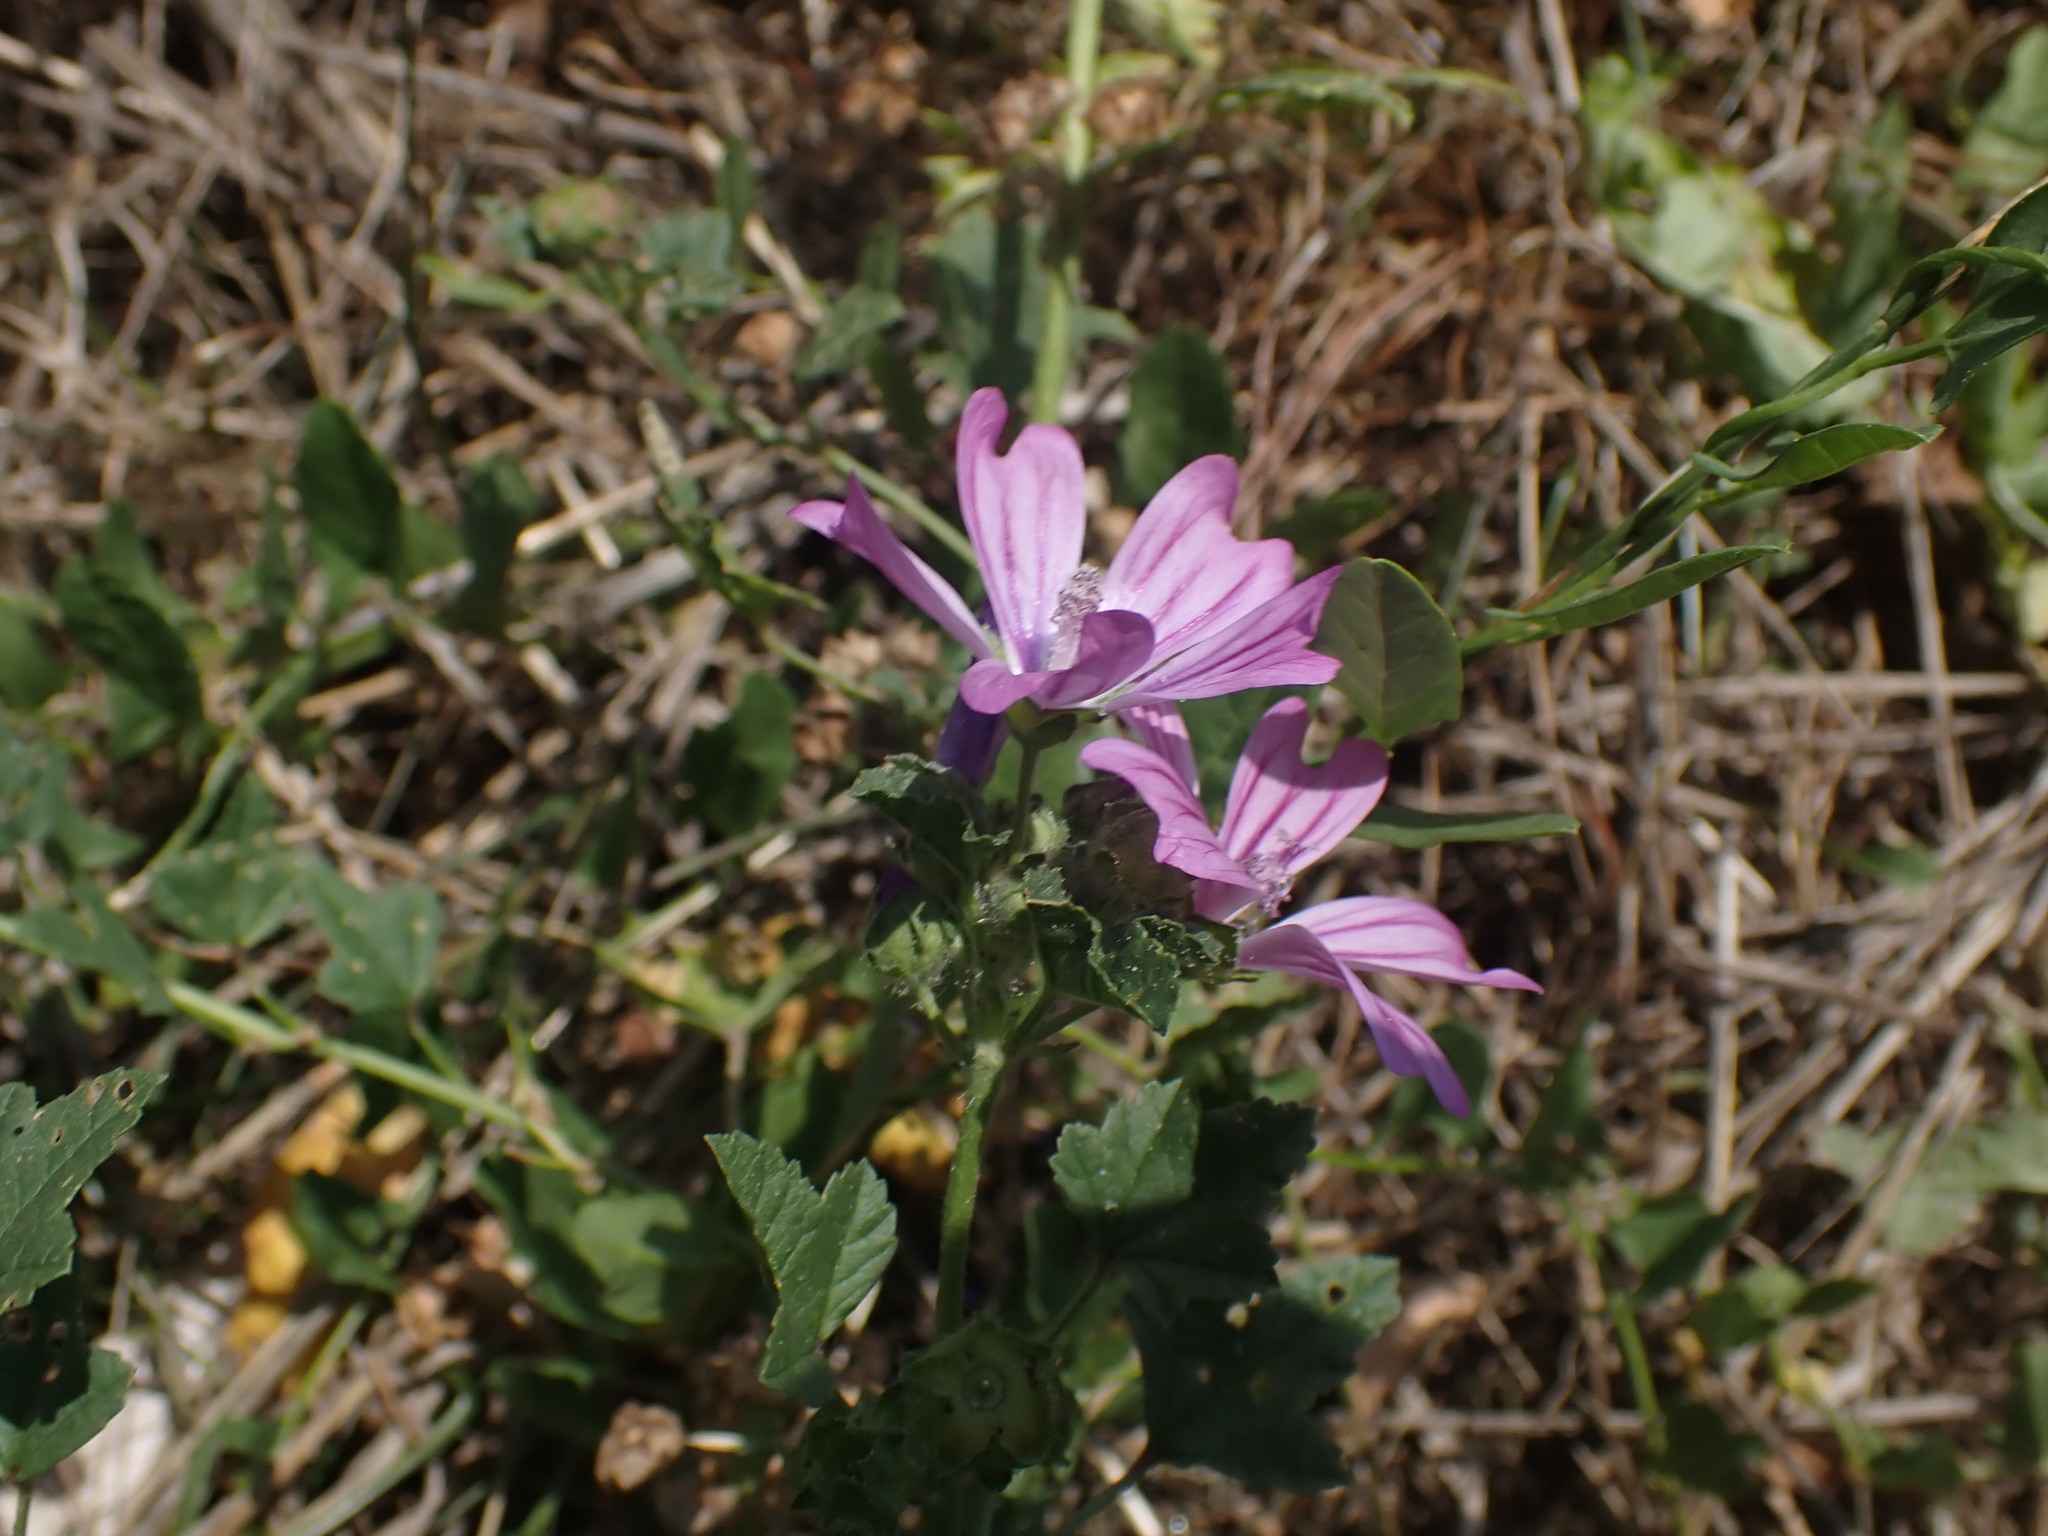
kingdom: Plantae
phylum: Tracheophyta
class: Magnoliopsida
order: Malvales
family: Malvaceae
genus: Malva
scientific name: Malva sylvestris
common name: Common mallow
